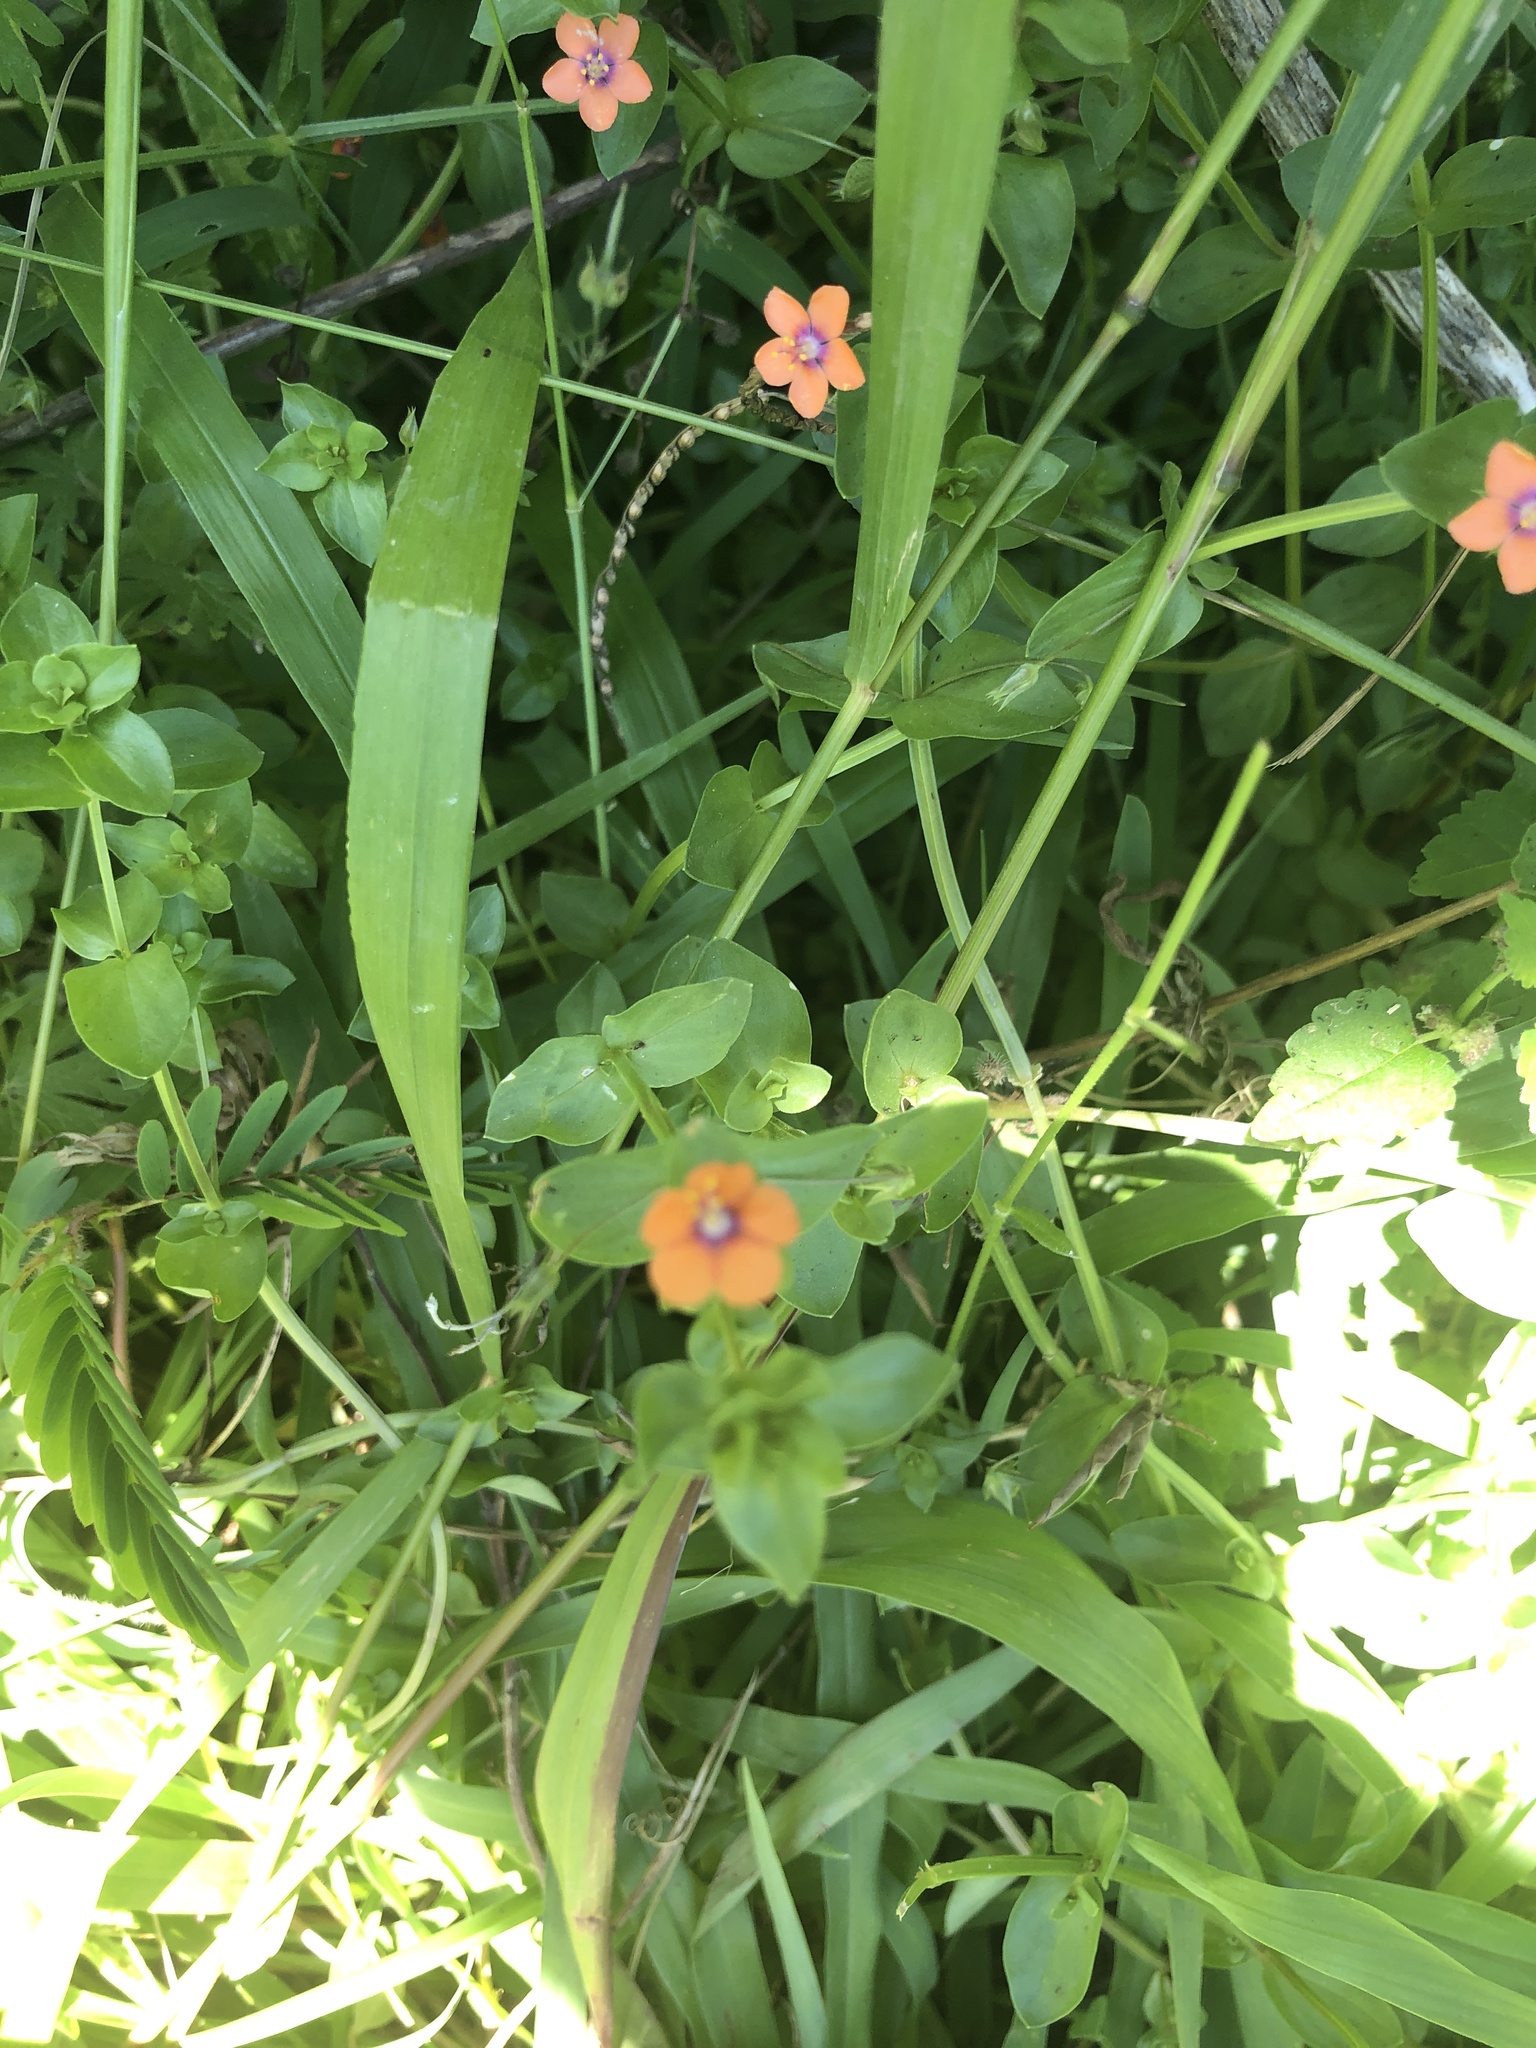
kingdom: Plantae
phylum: Tracheophyta
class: Magnoliopsida
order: Ericales
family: Primulaceae
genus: Lysimachia
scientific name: Lysimachia arvensis
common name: Scarlet pimpernel
